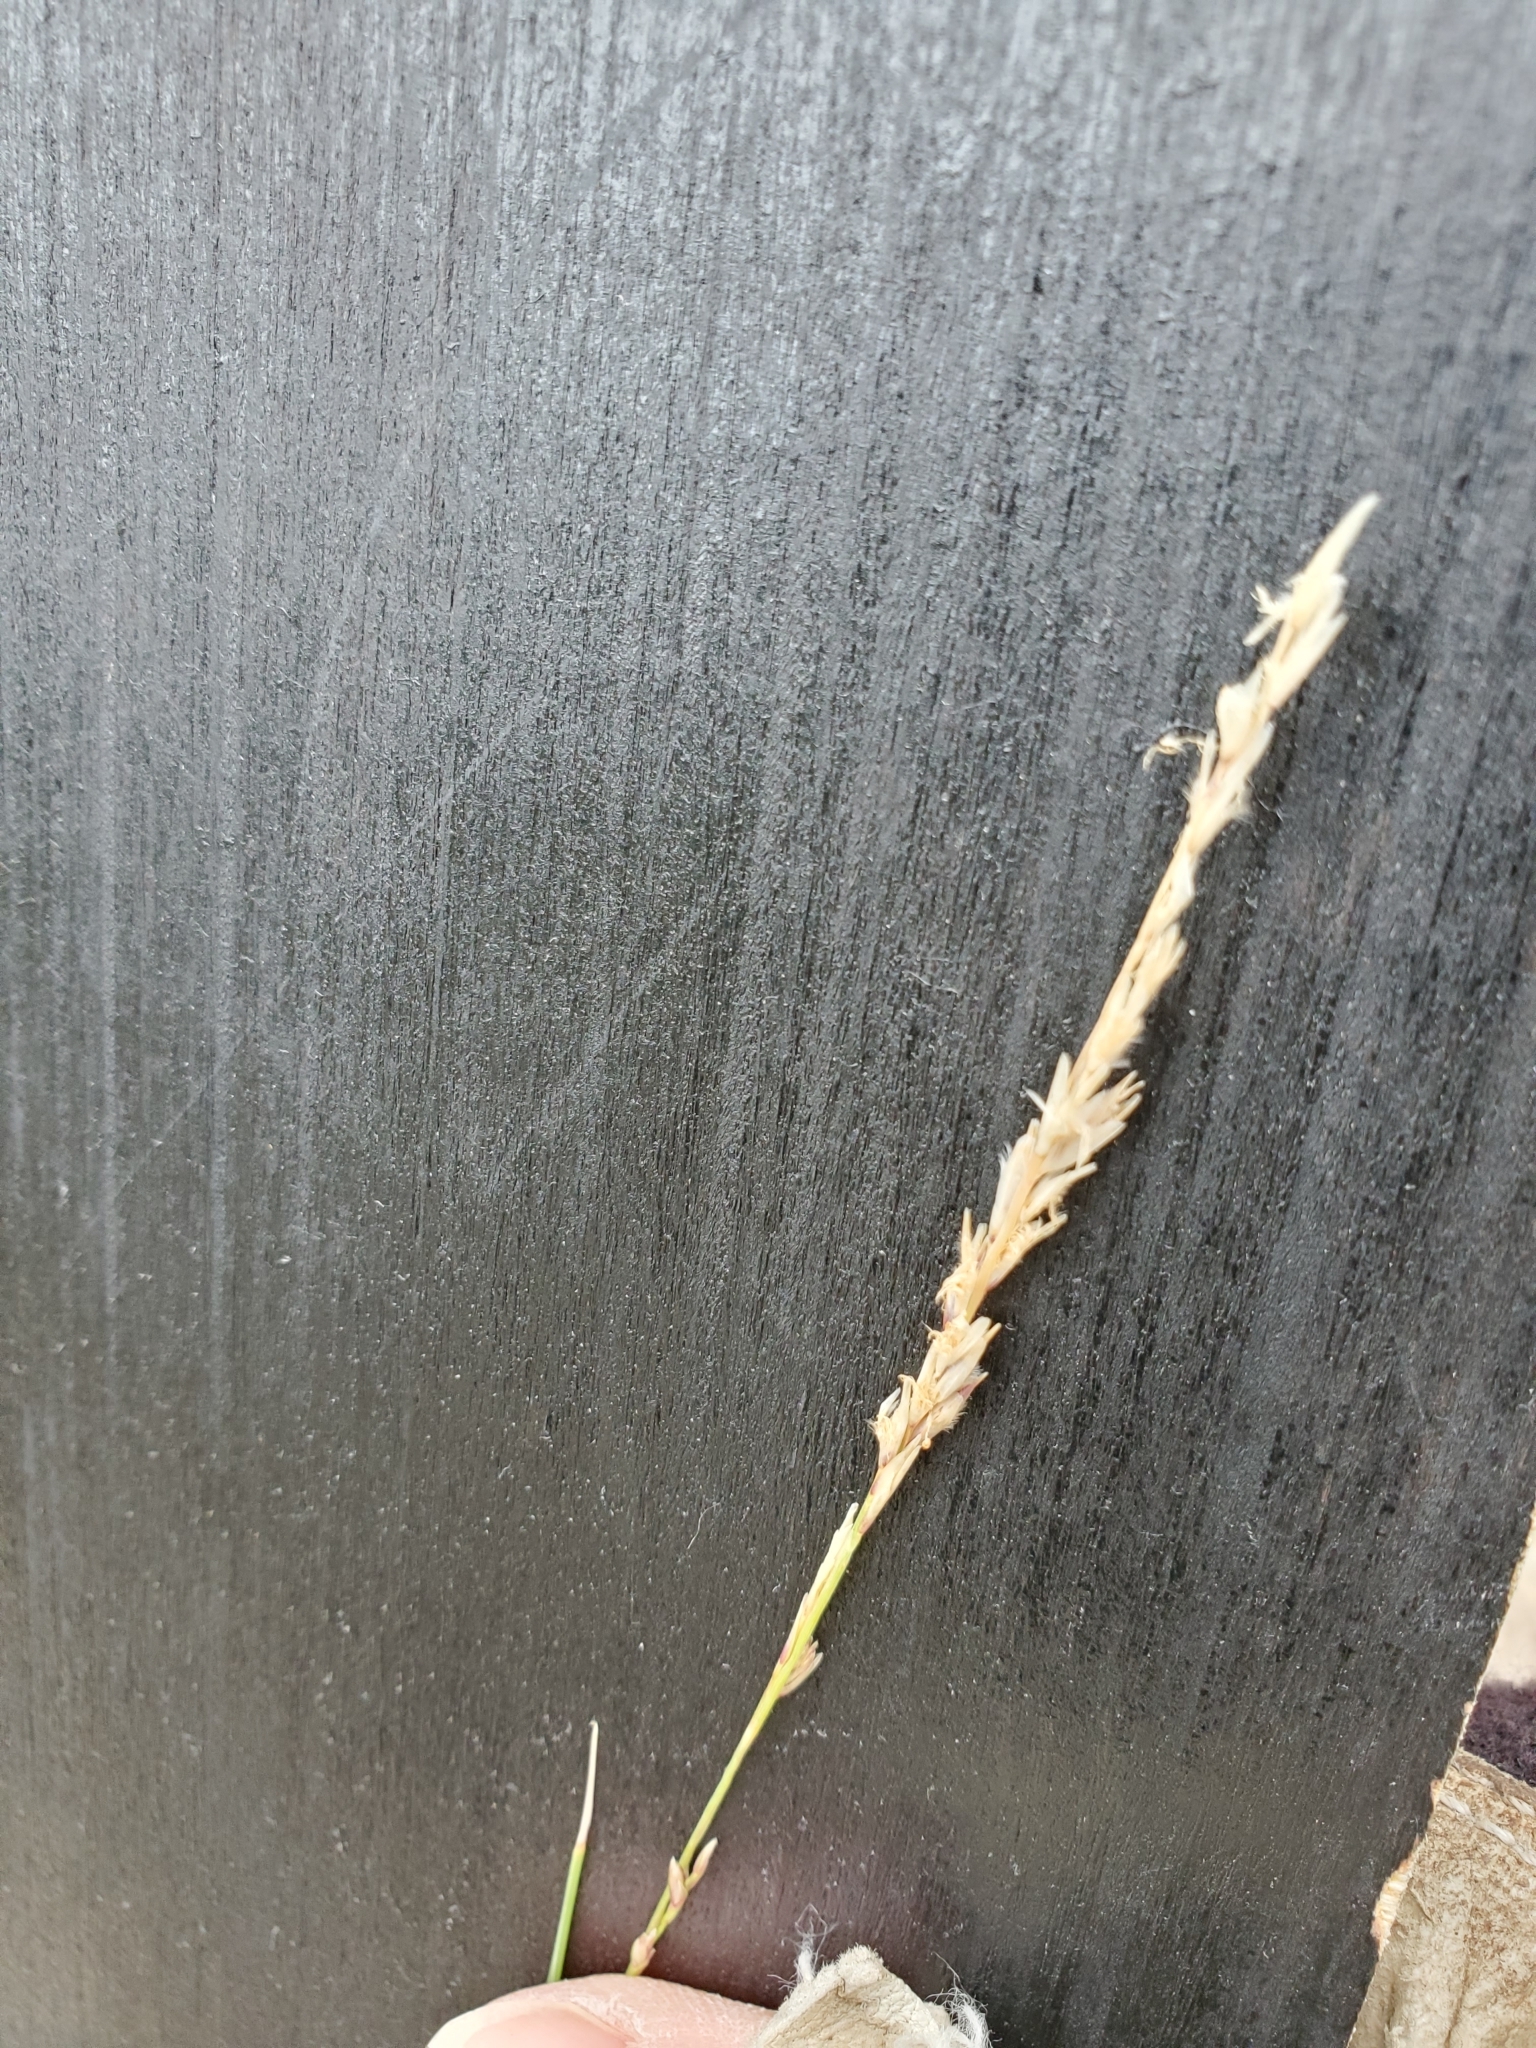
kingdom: Plantae
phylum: Tracheophyta
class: Liliopsida
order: Poales
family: Poaceae
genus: Tridentopsis
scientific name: Tridentopsis mutica
